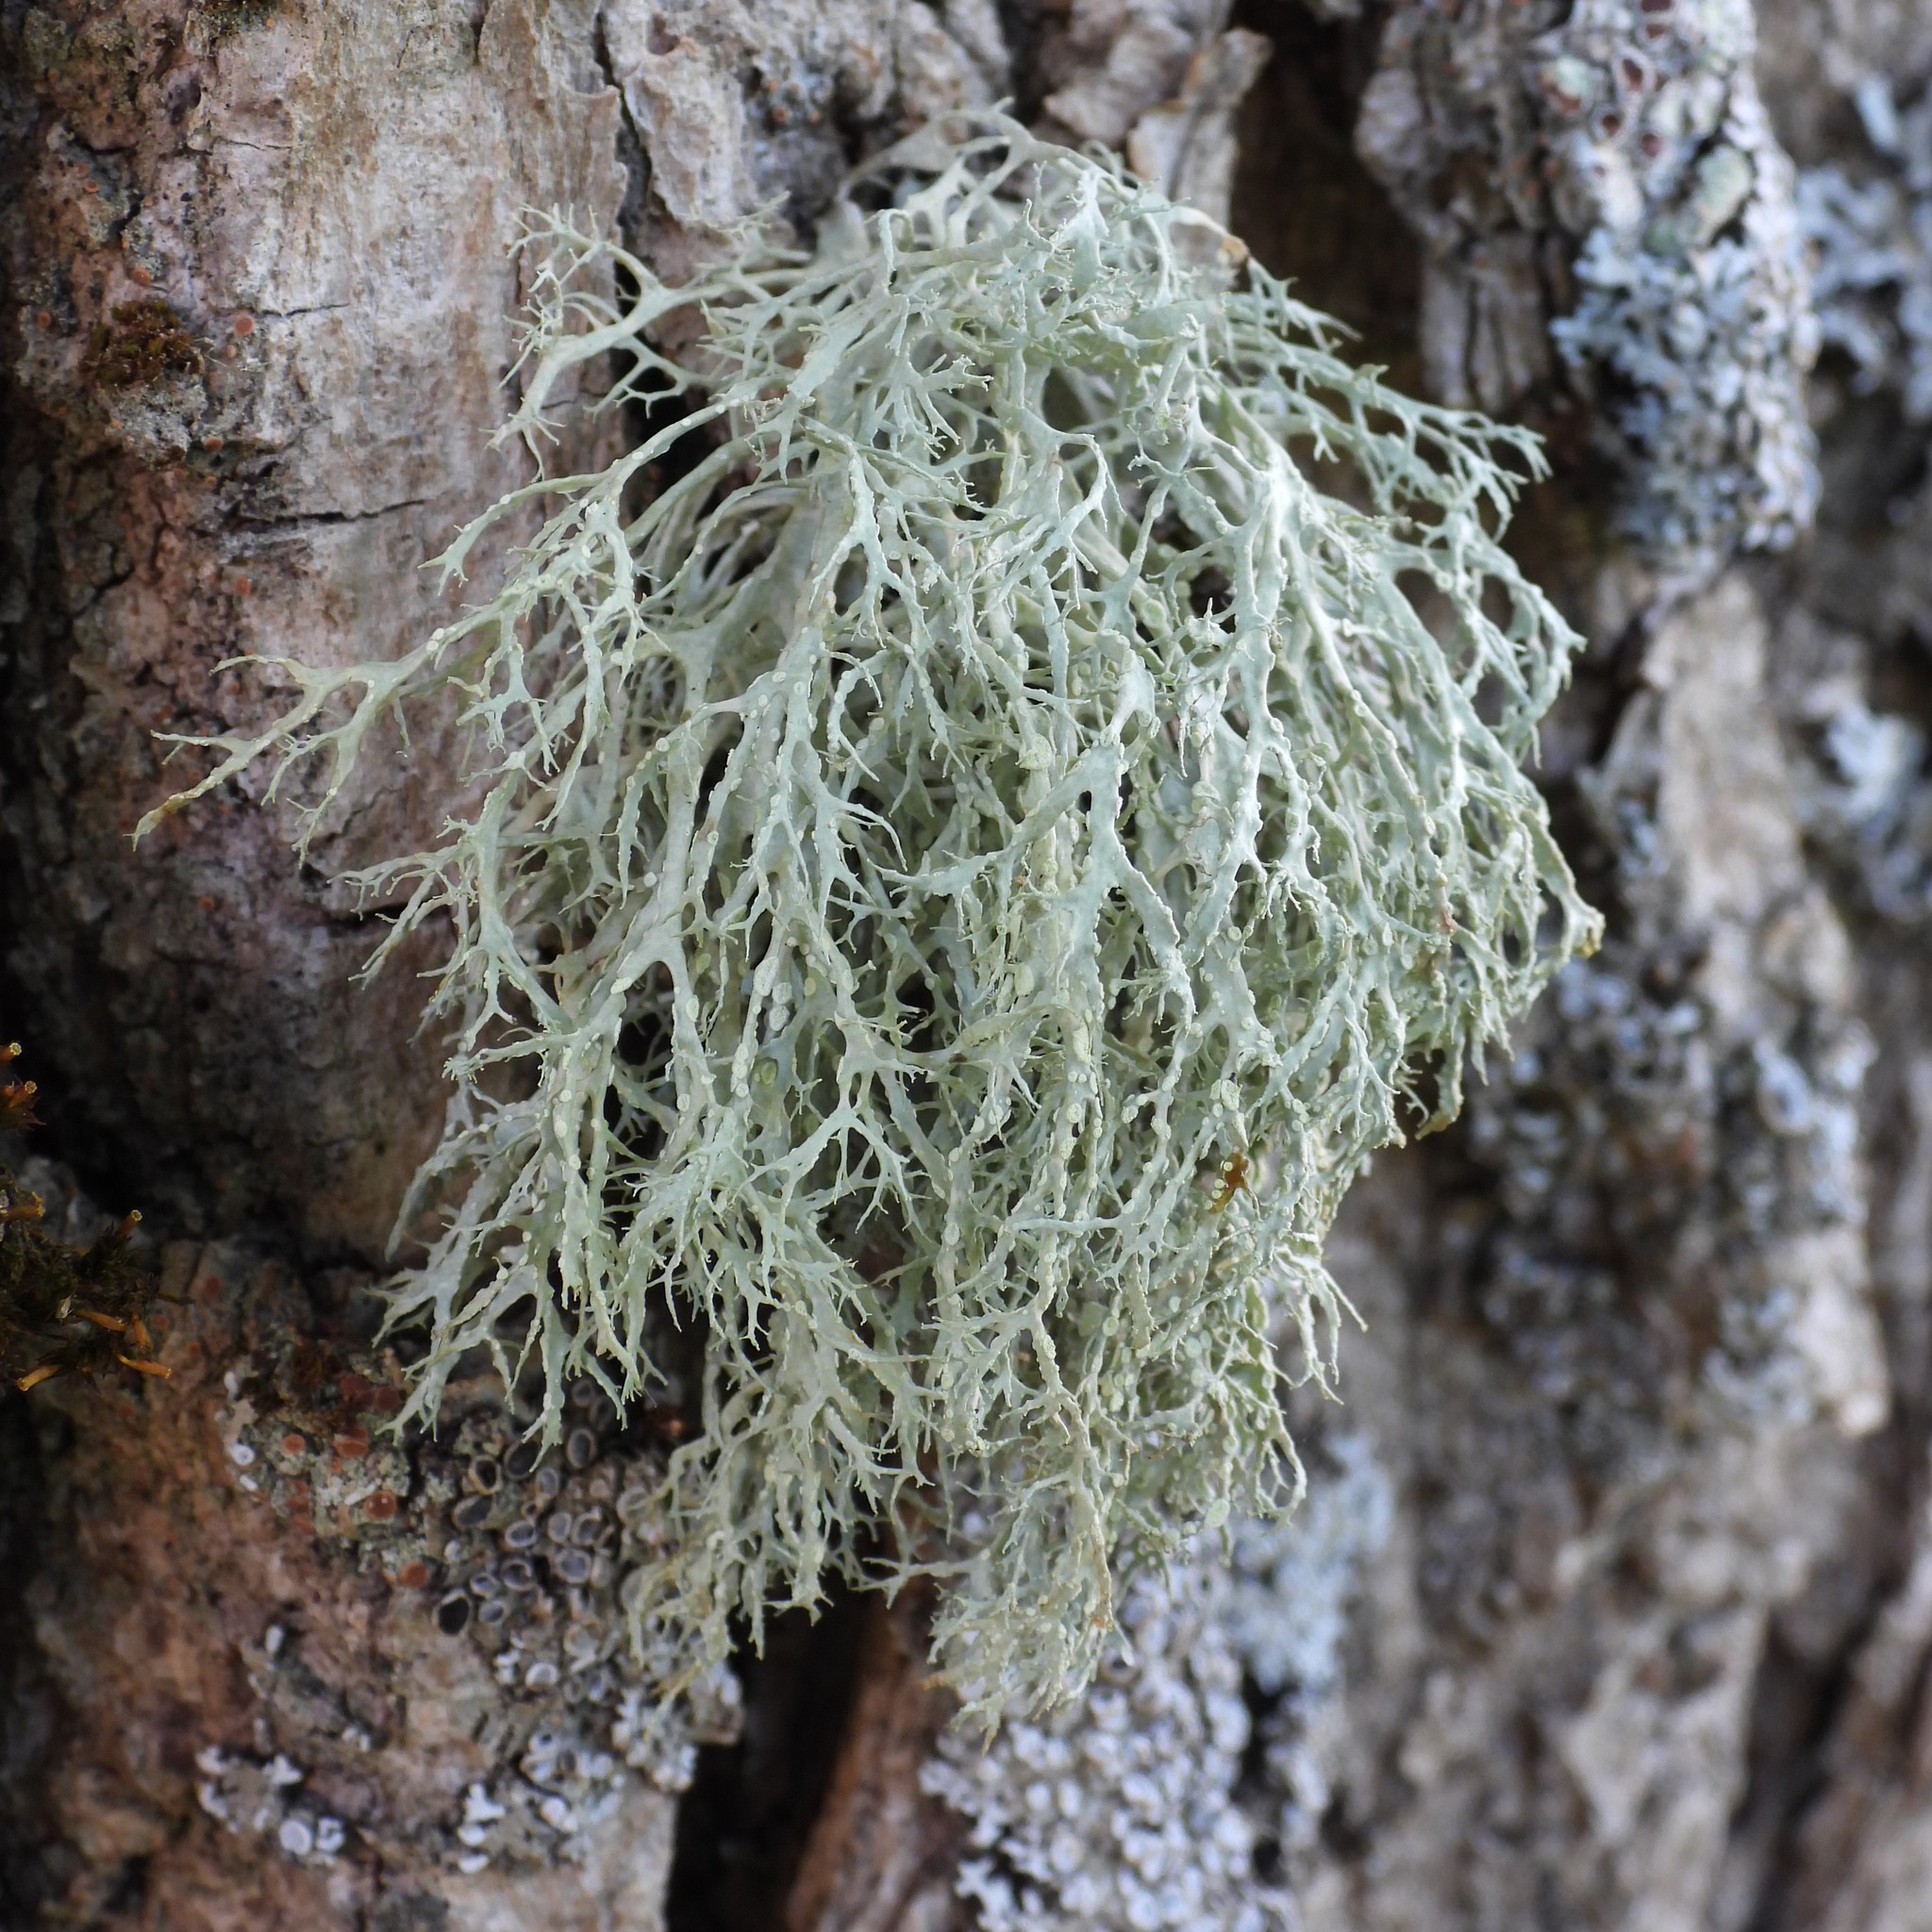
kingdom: Fungi
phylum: Ascomycota
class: Lecanoromycetes
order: Lecanorales
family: Ramalinaceae
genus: Ramalina
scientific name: Ramalina farinacea
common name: Farinose cartilage lichen
